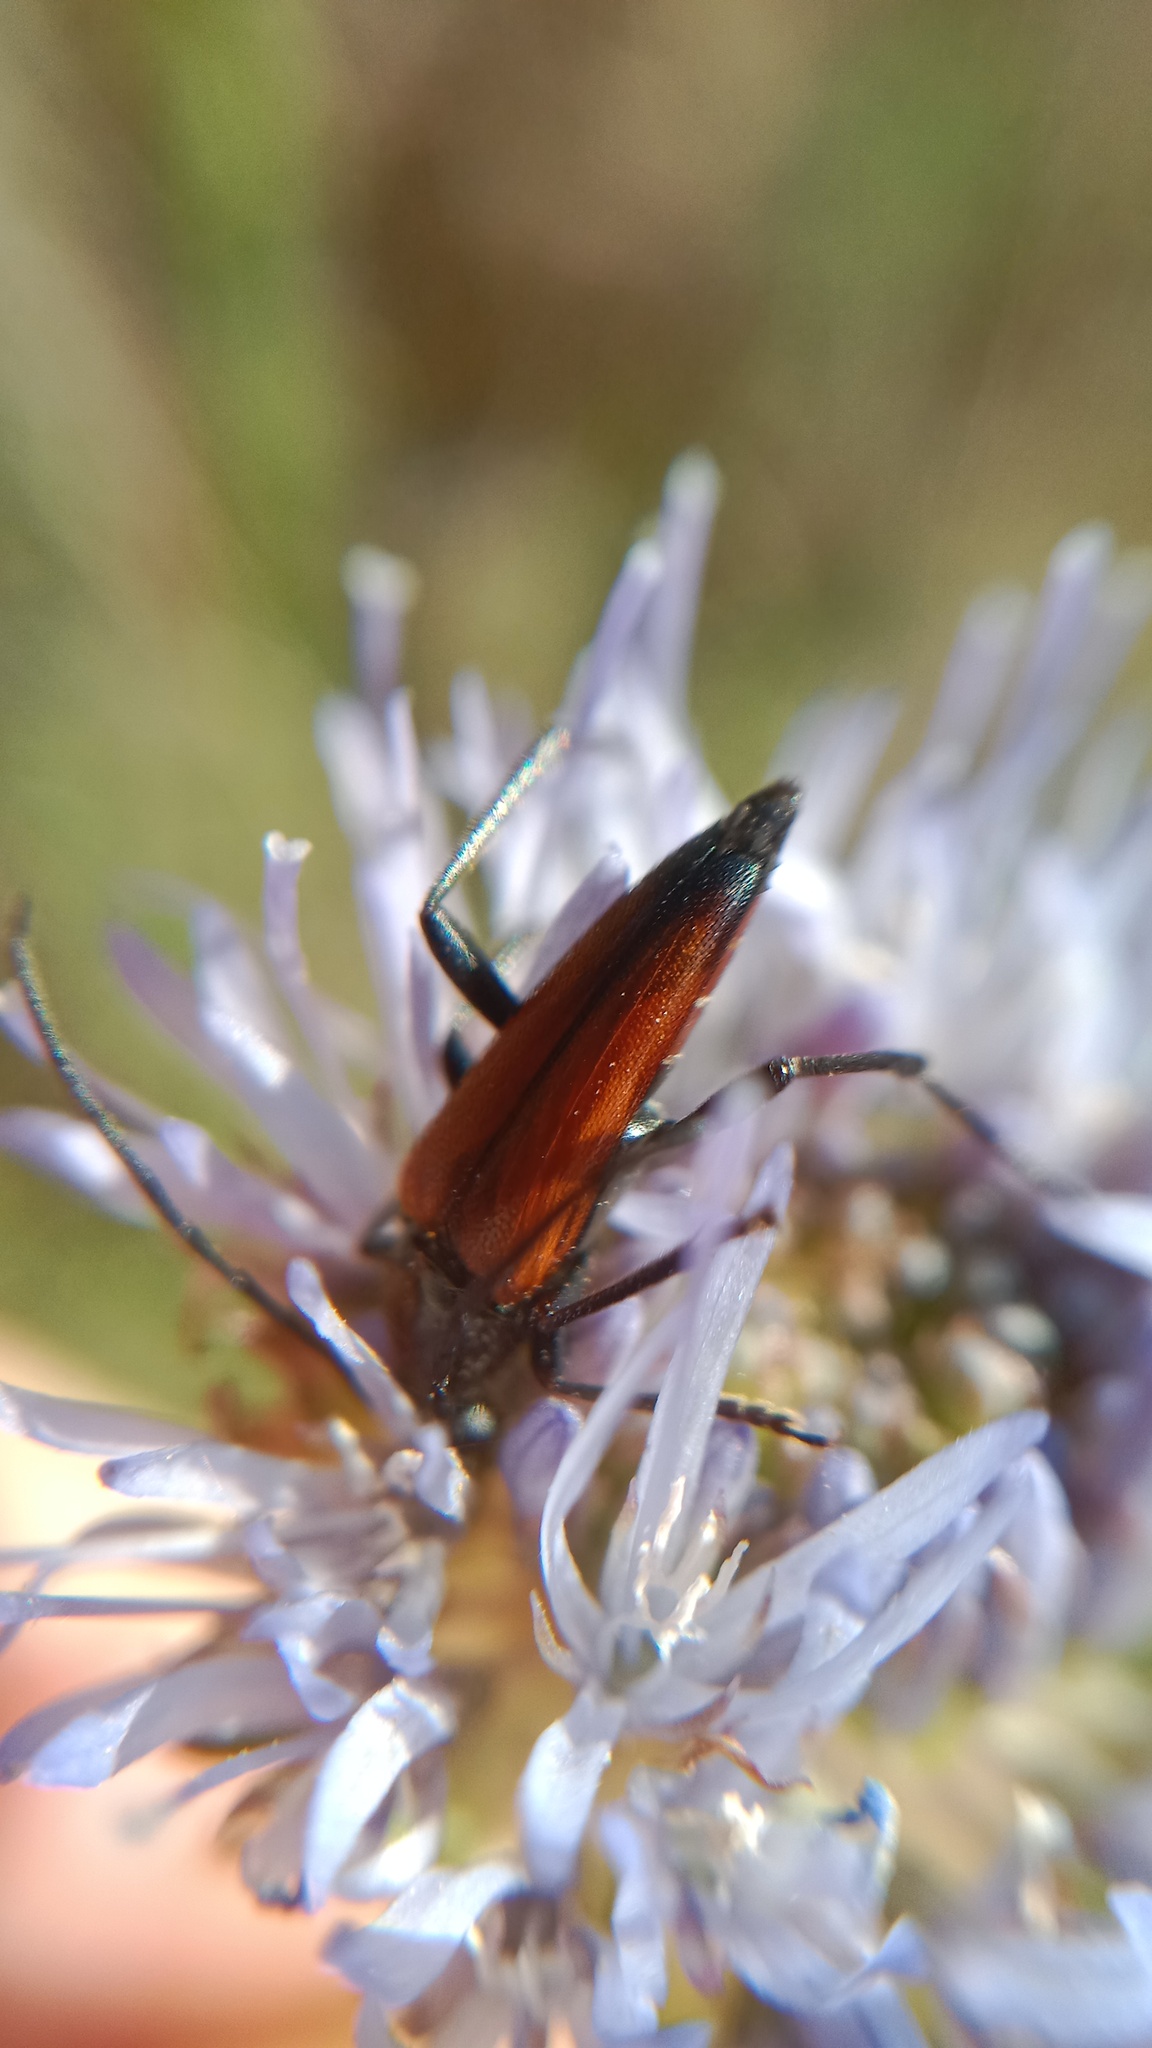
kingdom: Animalia
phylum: Arthropoda
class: Insecta
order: Coleoptera
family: Cerambycidae
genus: Stenurella
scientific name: Stenurella bifasciata
